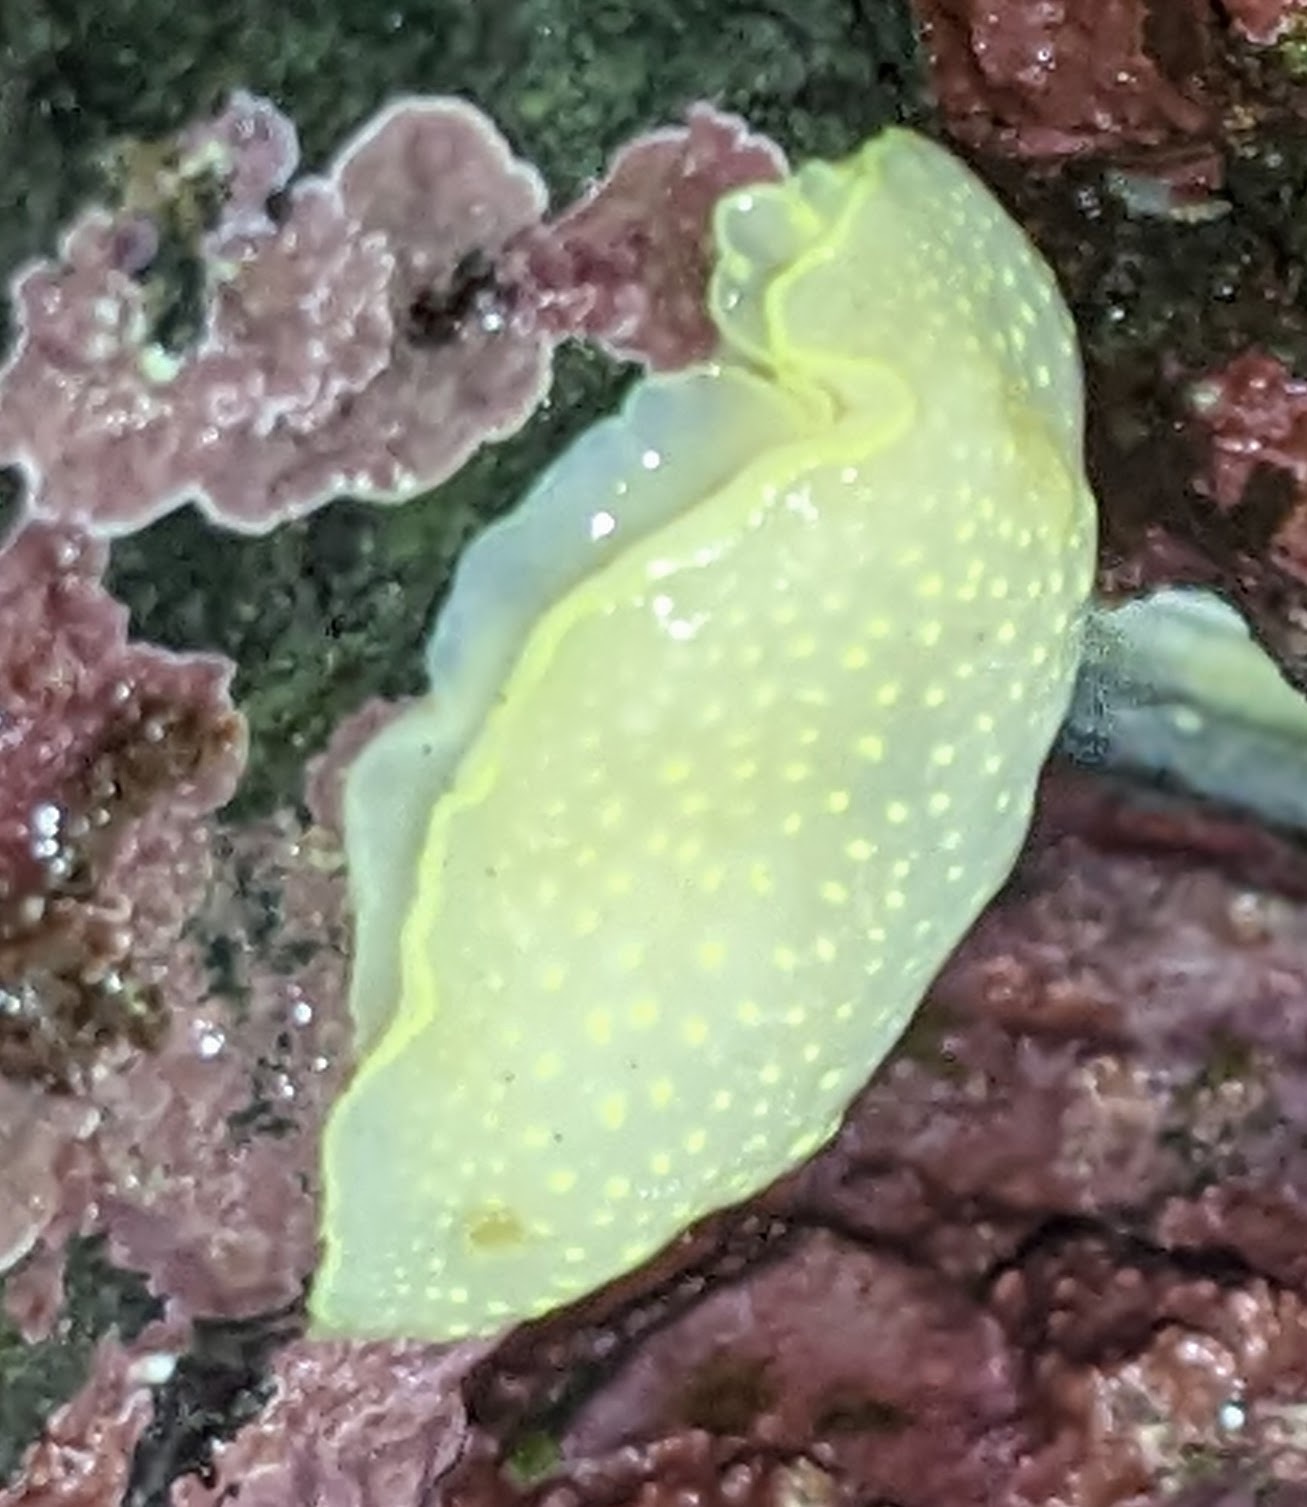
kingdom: Animalia
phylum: Mollusca
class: Gastropoda
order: Nudibranchia
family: Cadlinidae
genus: Cadlina
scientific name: Cadlina luteomarginata
